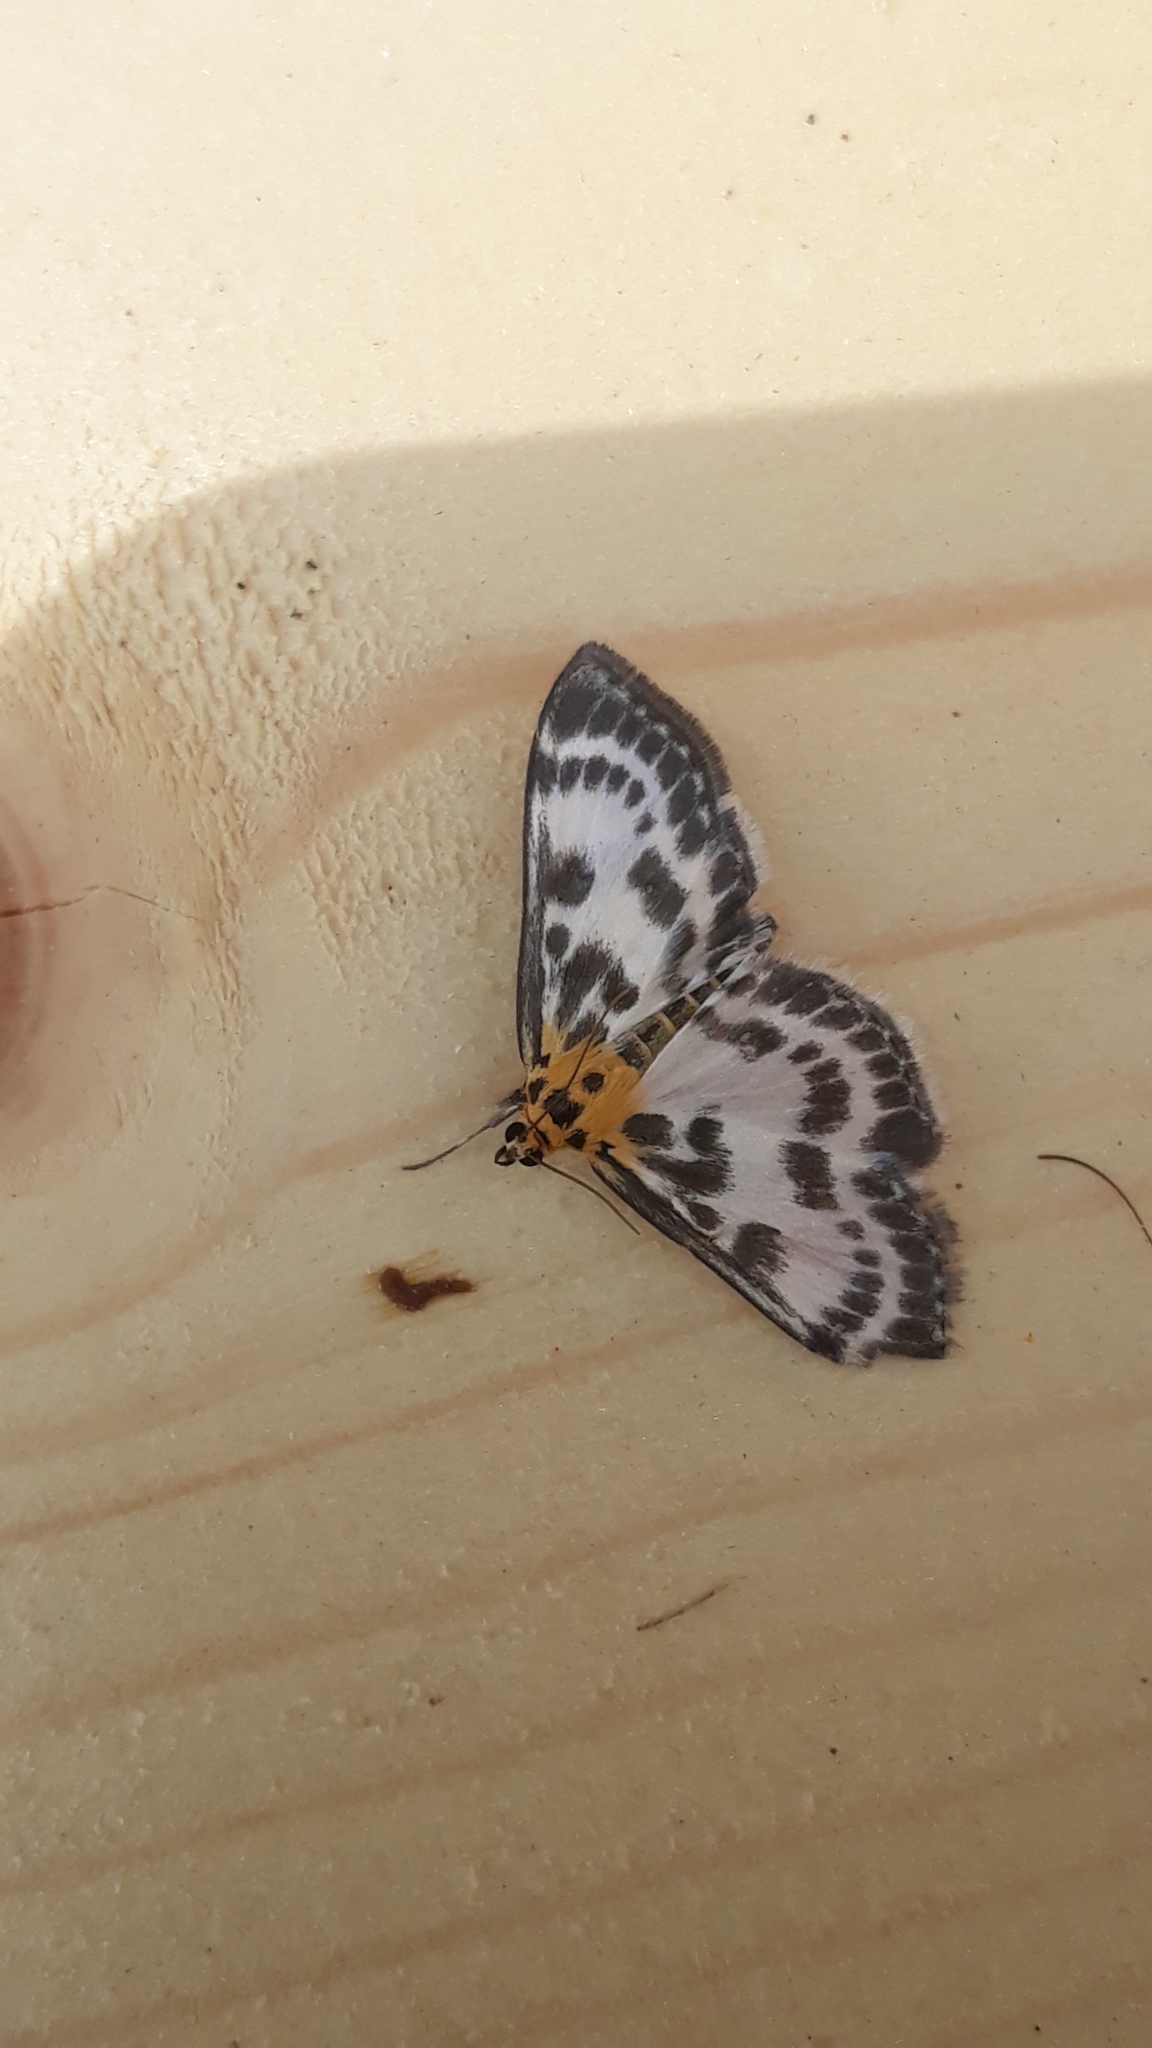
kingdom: Animalia
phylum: Arthropoda
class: Insecta
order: Lepidoptera
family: Crambidae
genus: Anania
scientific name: Anania hortulata
